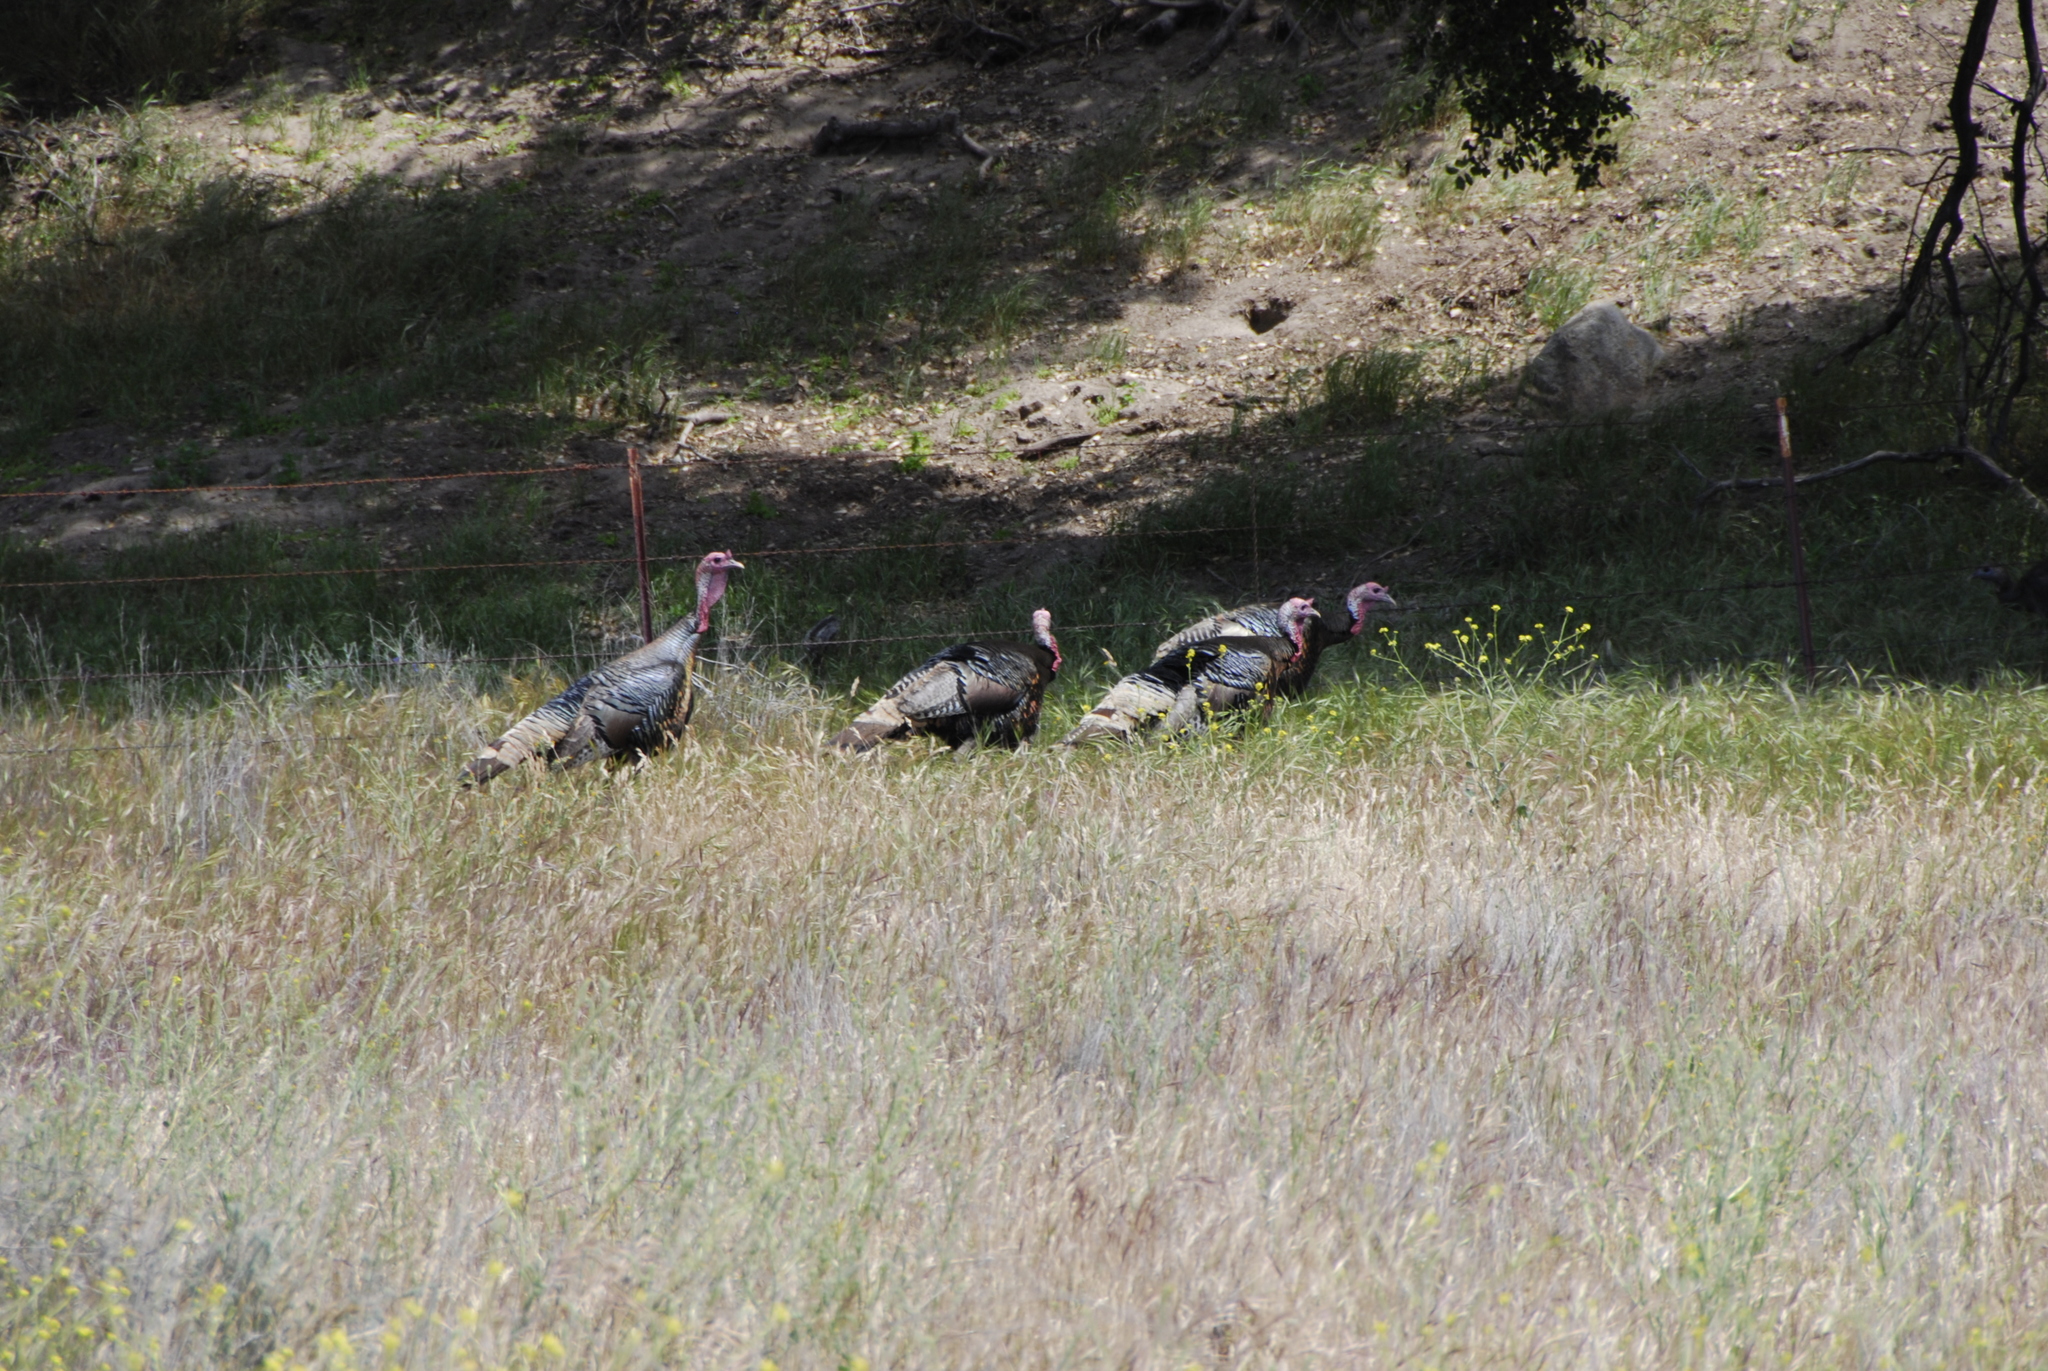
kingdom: Animalia
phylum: Chordata
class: Aves
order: Galliformes
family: Phasianidae
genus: Meleagris
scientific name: Meleagris gallopavo
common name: Wild turkey
